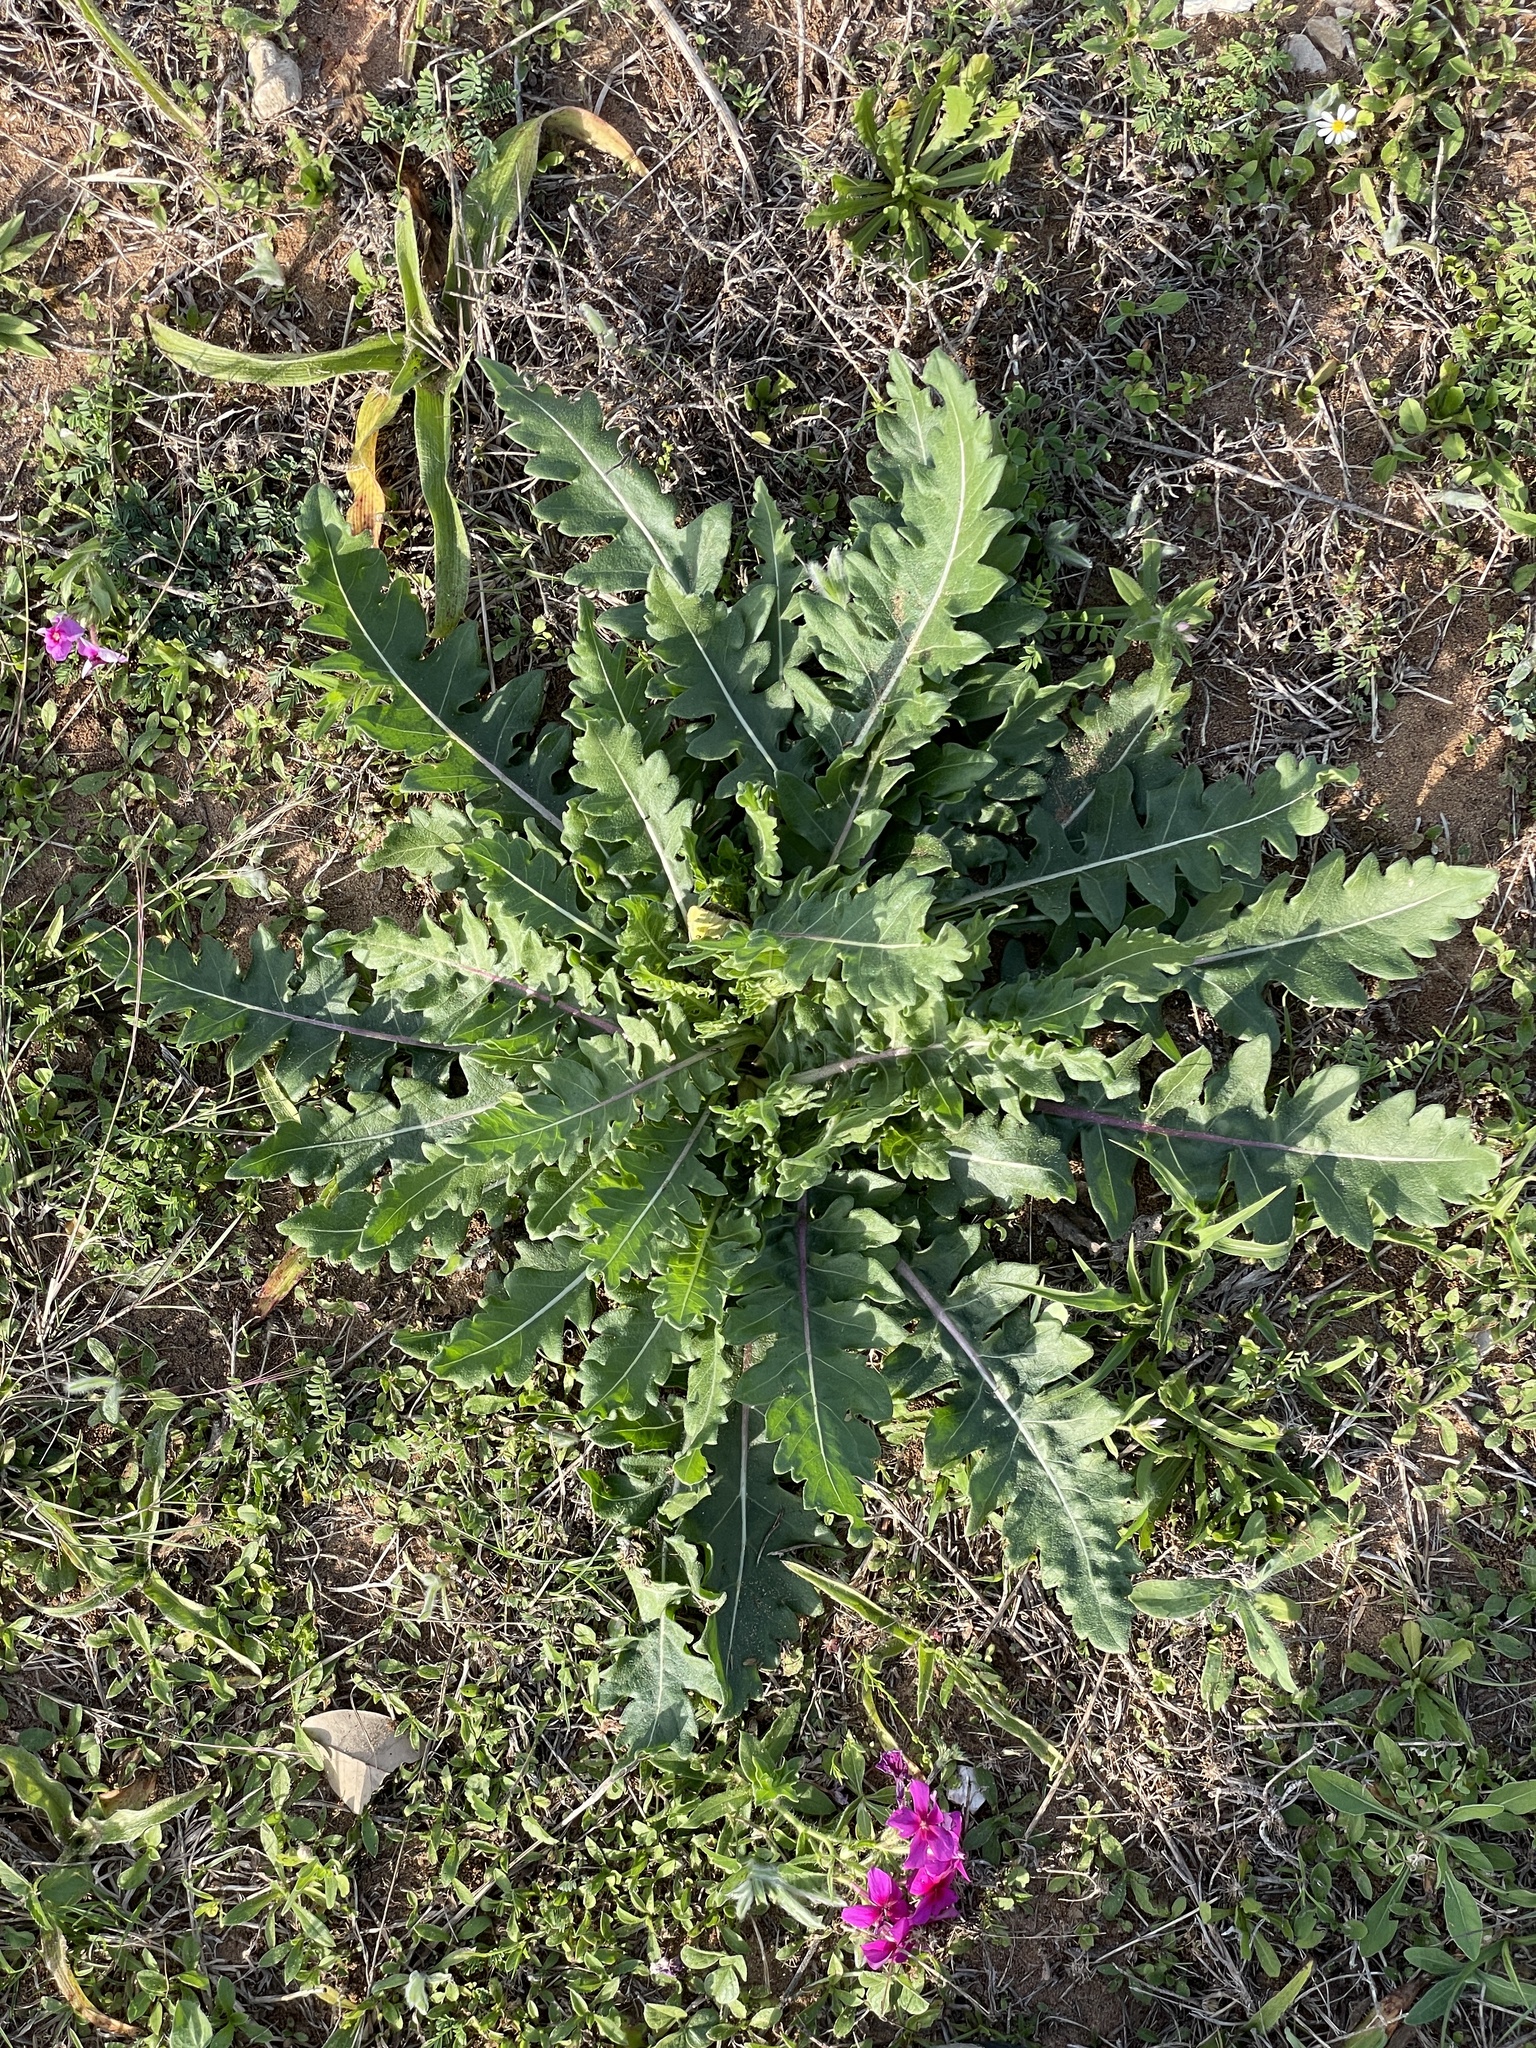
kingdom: Plantae
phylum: Tracheophyta
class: Magnoliopsida
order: Asterales
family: Asteraceae
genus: Engelmannia
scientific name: Engelmannia peristenia
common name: Engelmann's daisy
